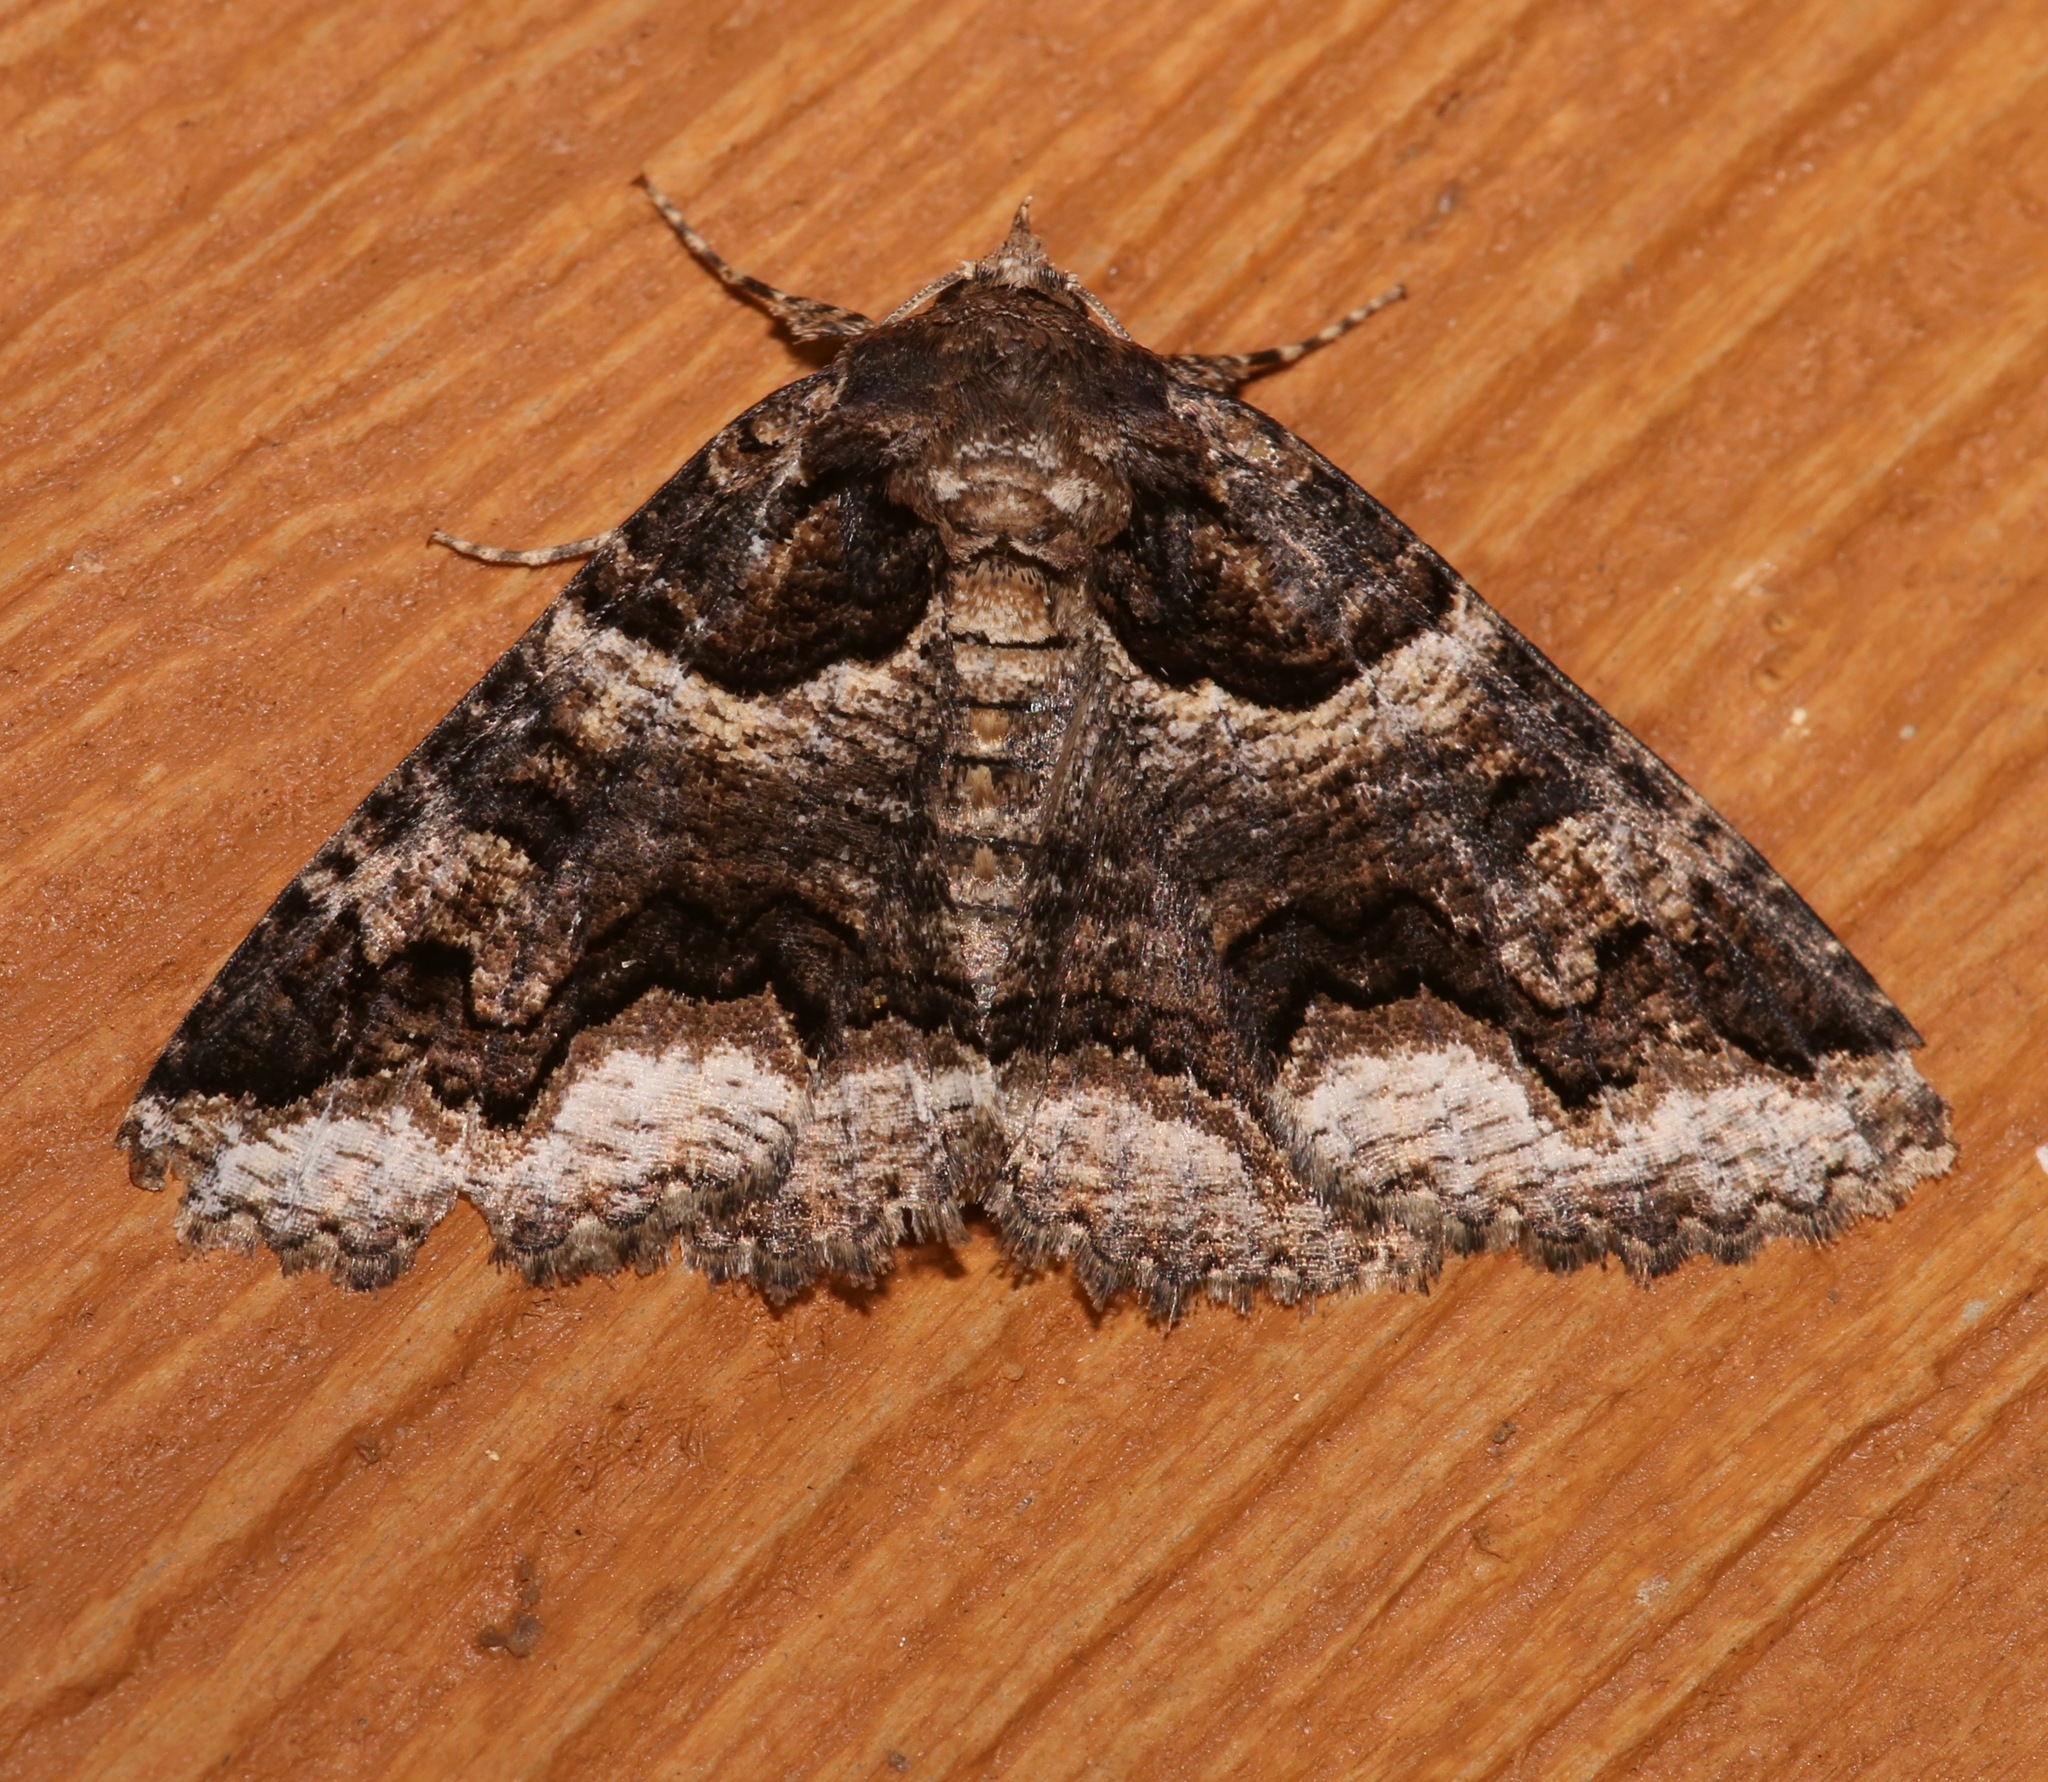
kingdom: Animalia
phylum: Arthropoda
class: Insecta
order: Lepidoptera
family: Erebidae
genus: Zale
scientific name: Zale calycanthata
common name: Double-banded zale
